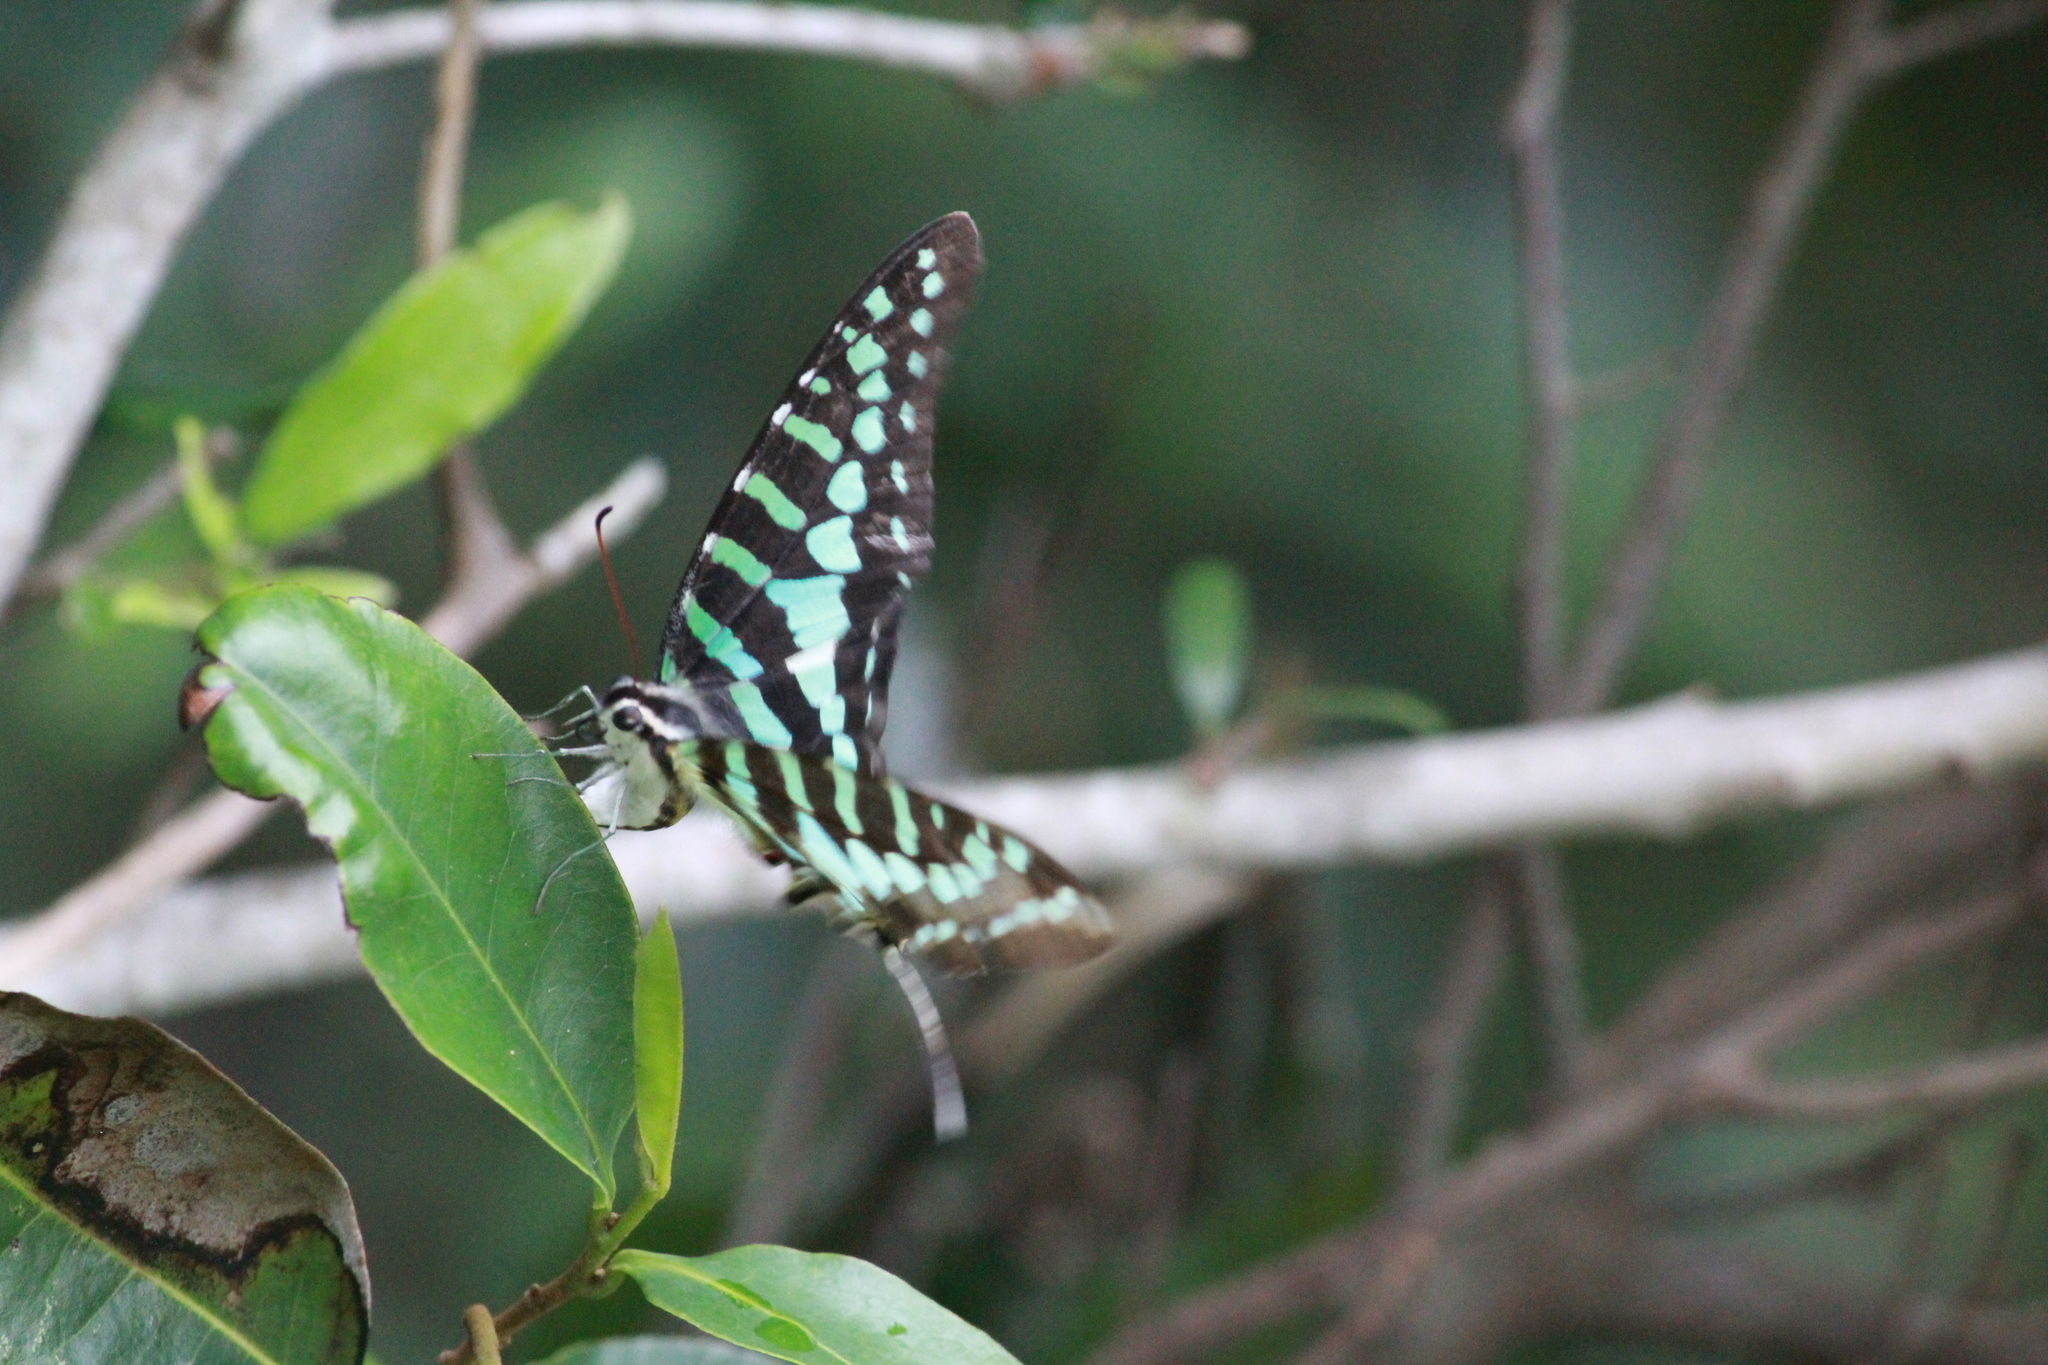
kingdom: Animalia
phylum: Arthropoda
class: Insecta
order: Lepidoptera
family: Papilionidae
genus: Graphium
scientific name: Graphium policenes
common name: Common swordtail
